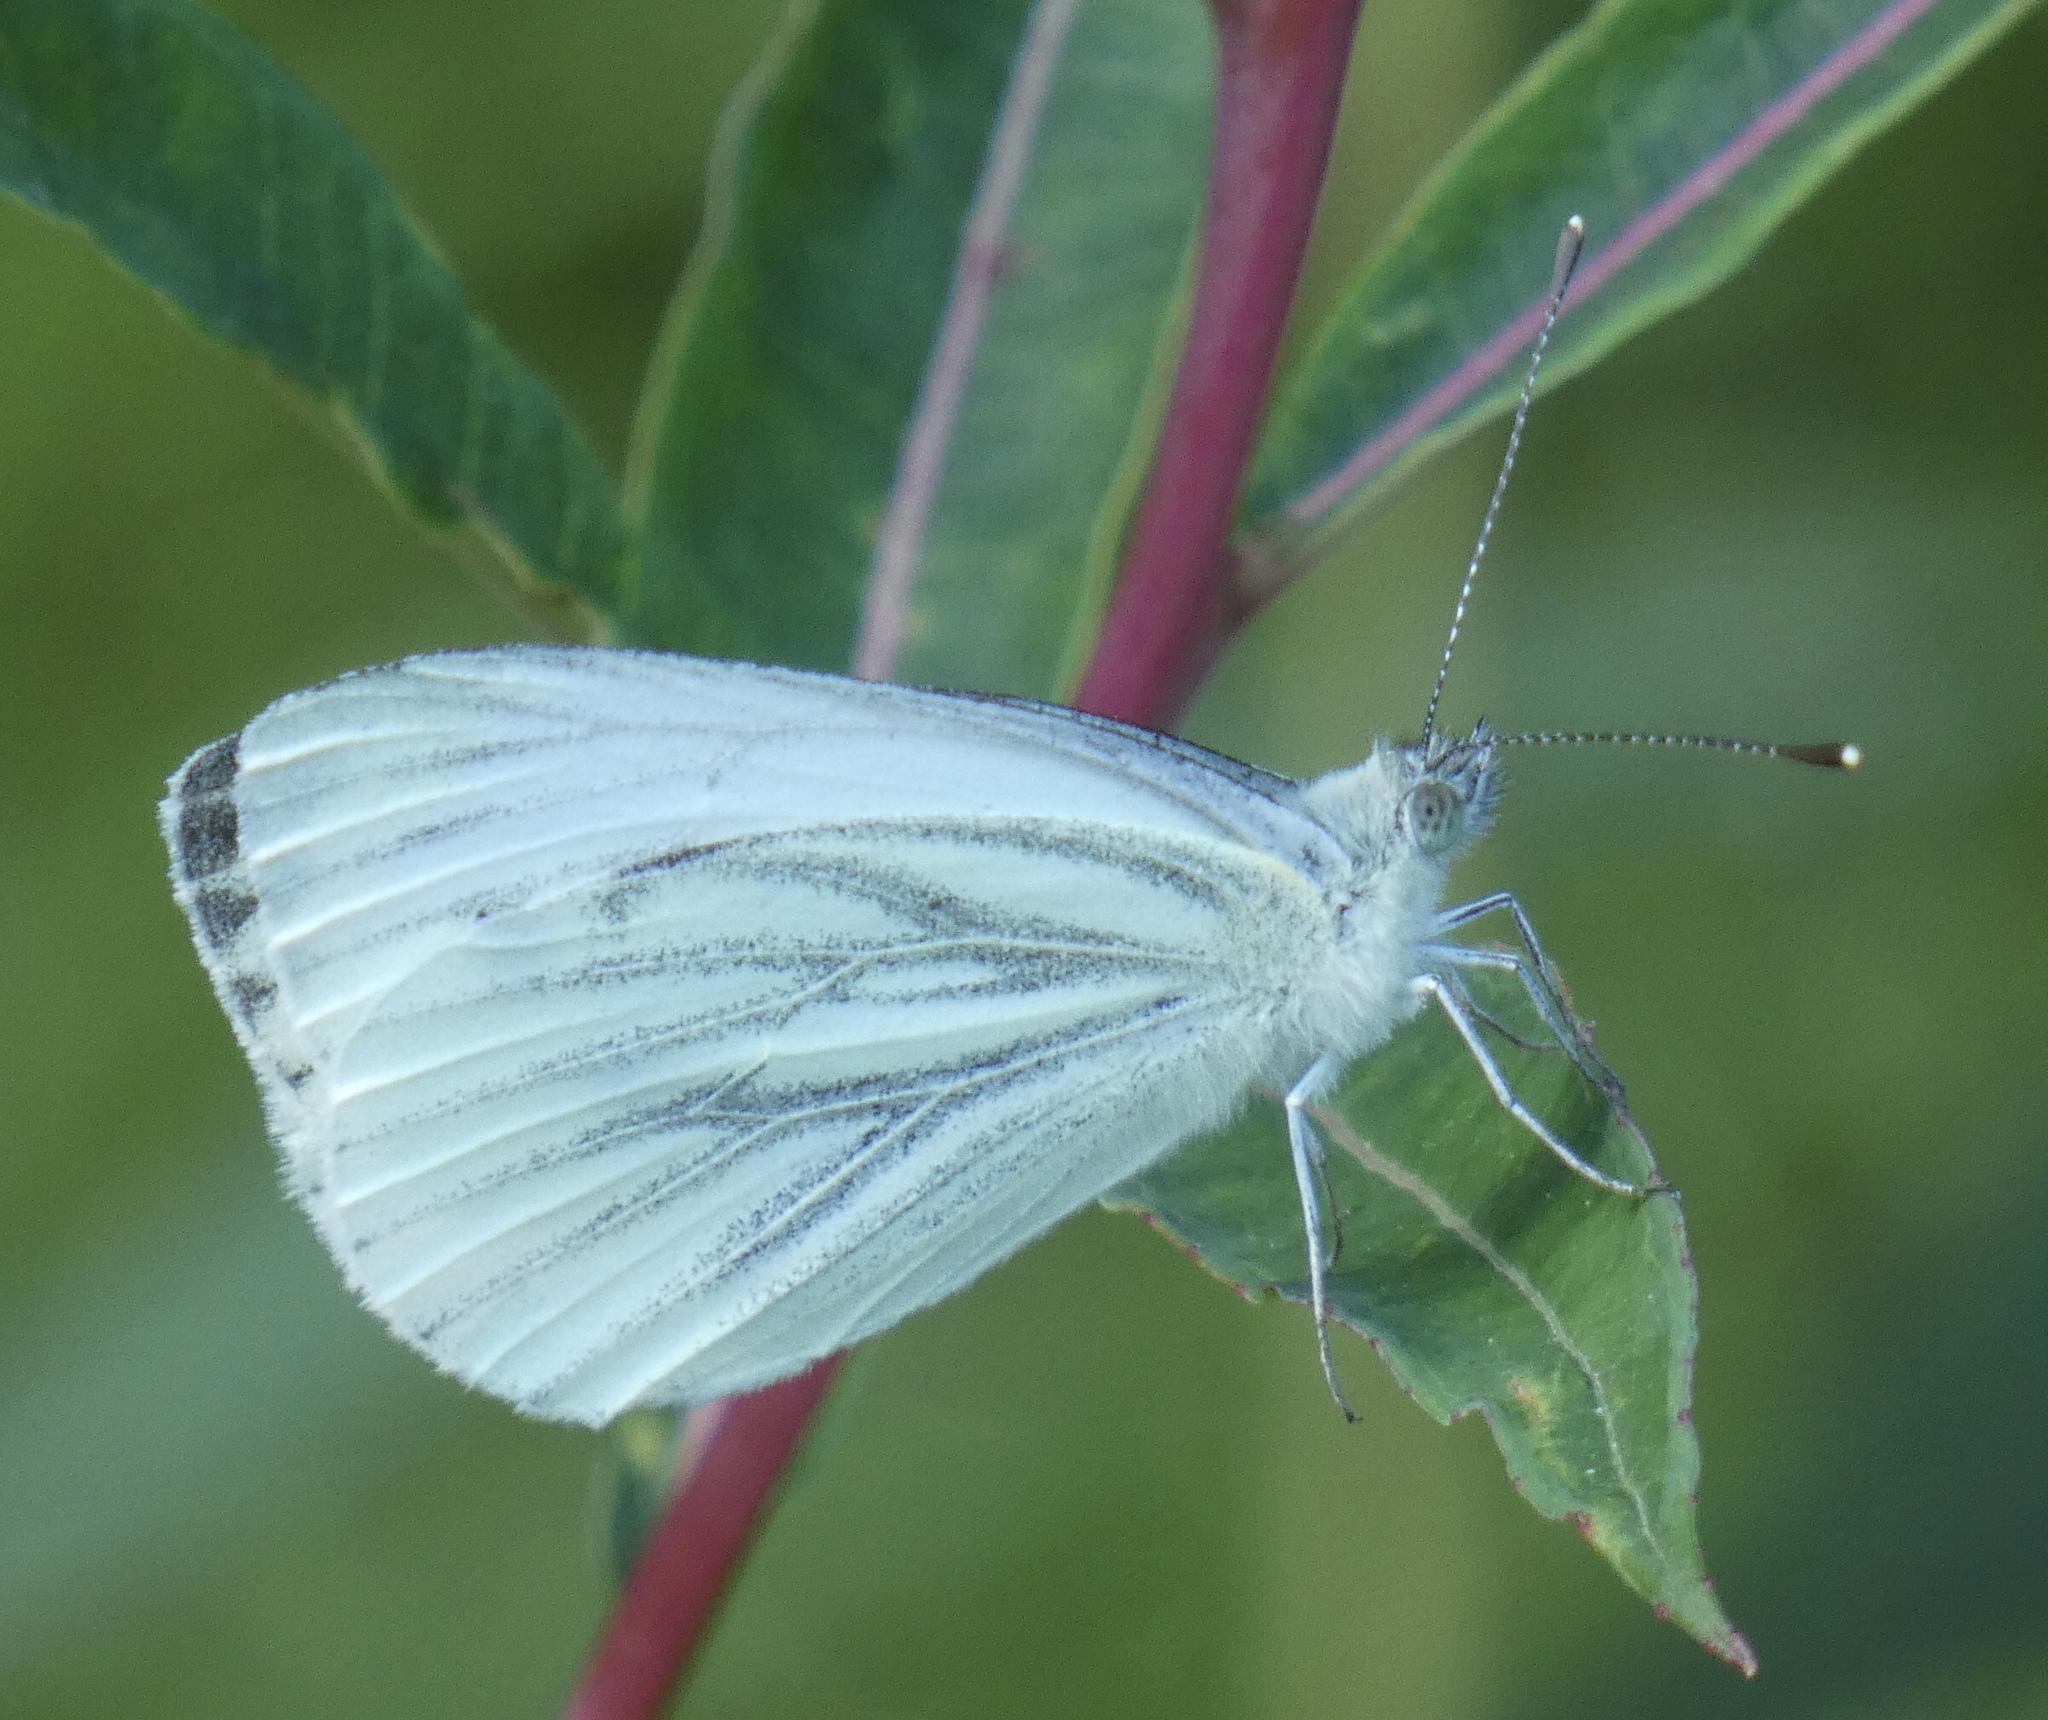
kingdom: Animalia
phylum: Arthropoda
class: Insecta
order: Lepidoptera
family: Pieridae
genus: Pieris
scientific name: Pieris napi
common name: Green-veined white
